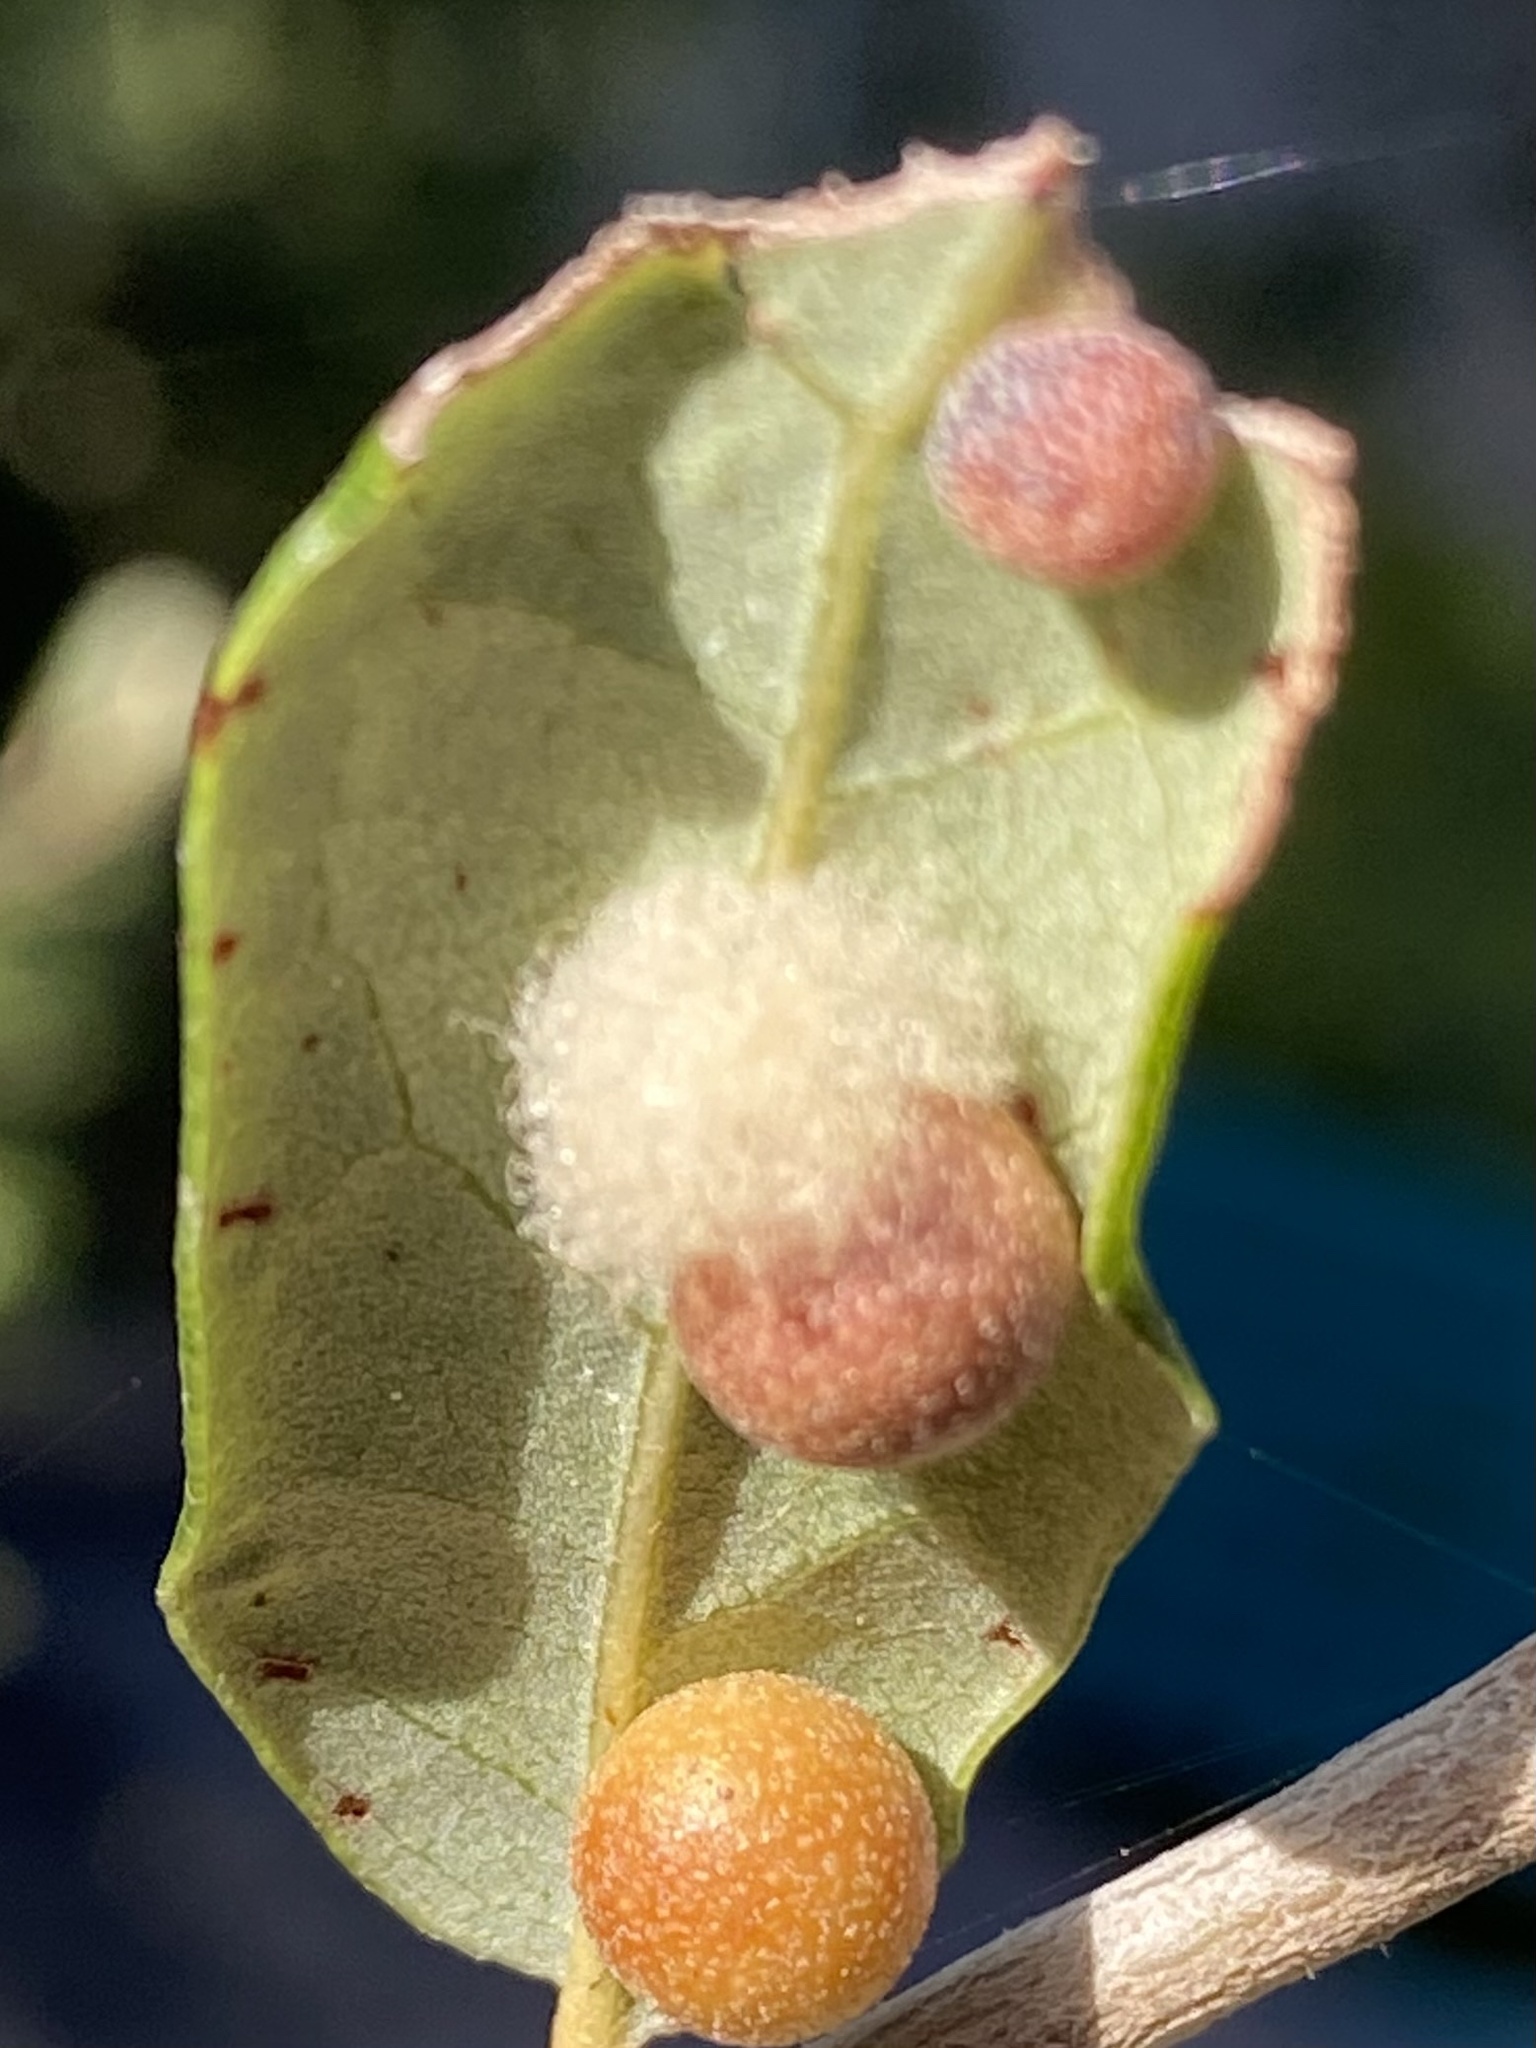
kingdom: Animalia
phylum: Arthropoda
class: Insecta
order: Hymenoptera
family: Cynipidae
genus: Andricus
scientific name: Andricus Druon quercuslanigerum
